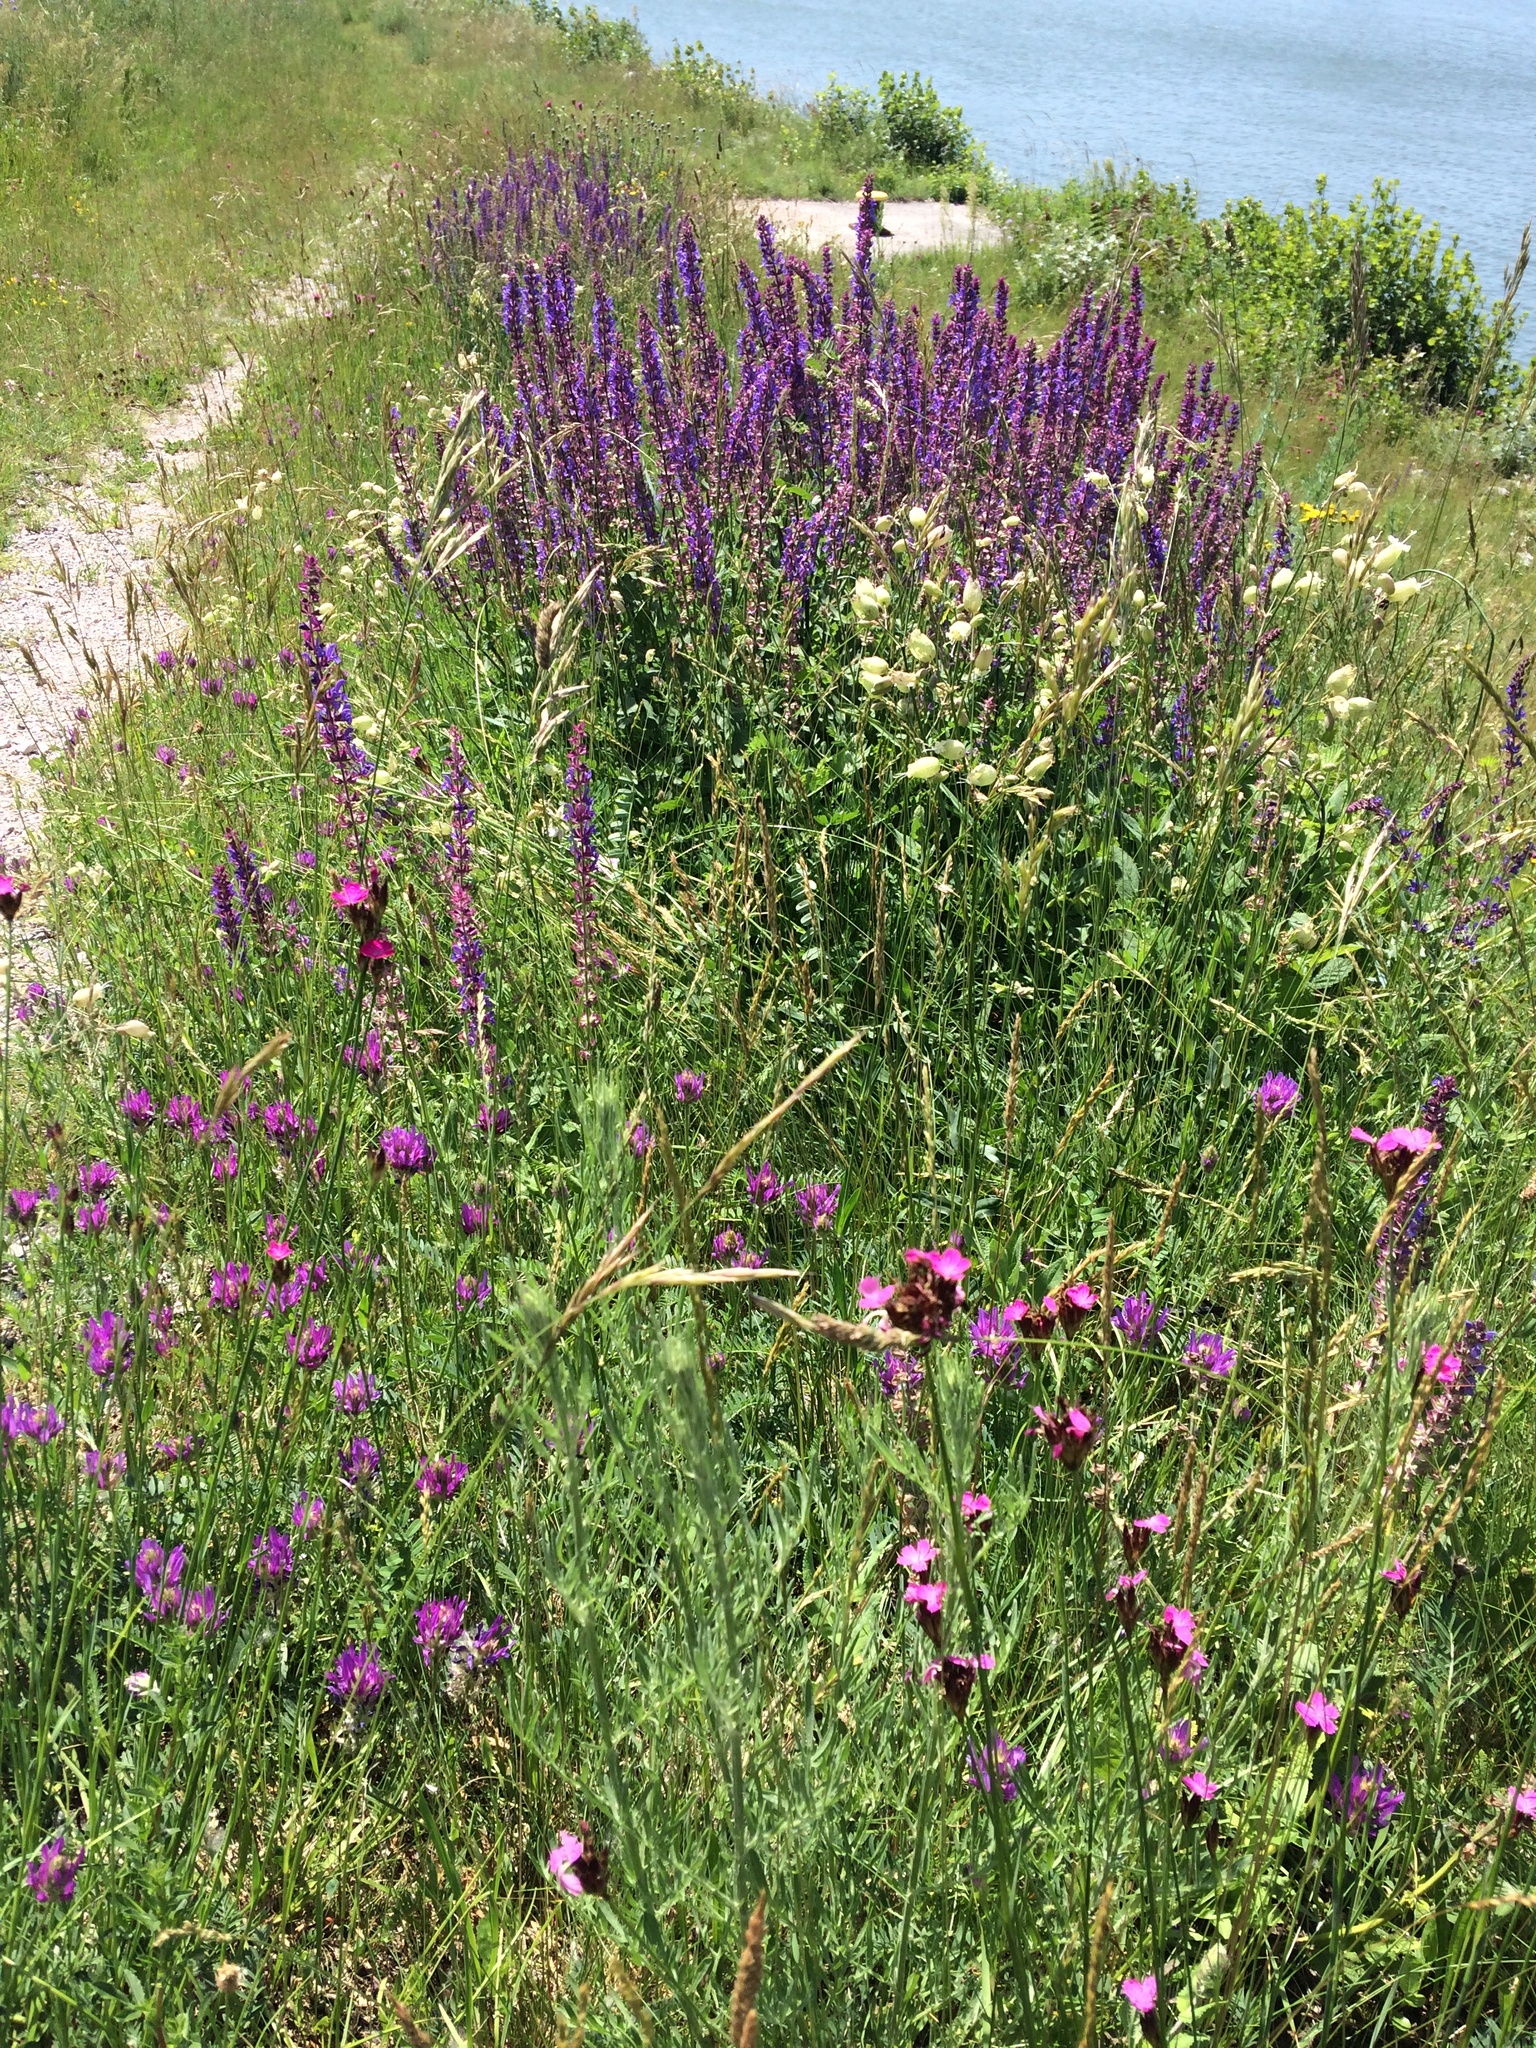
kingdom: Plantae
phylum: Tracheophyta
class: Magnoliopsida
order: Caryophyllales
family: Caryophyllaceae
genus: Dianthus
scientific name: Dianthus carthusianorum
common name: Carthusian pink
